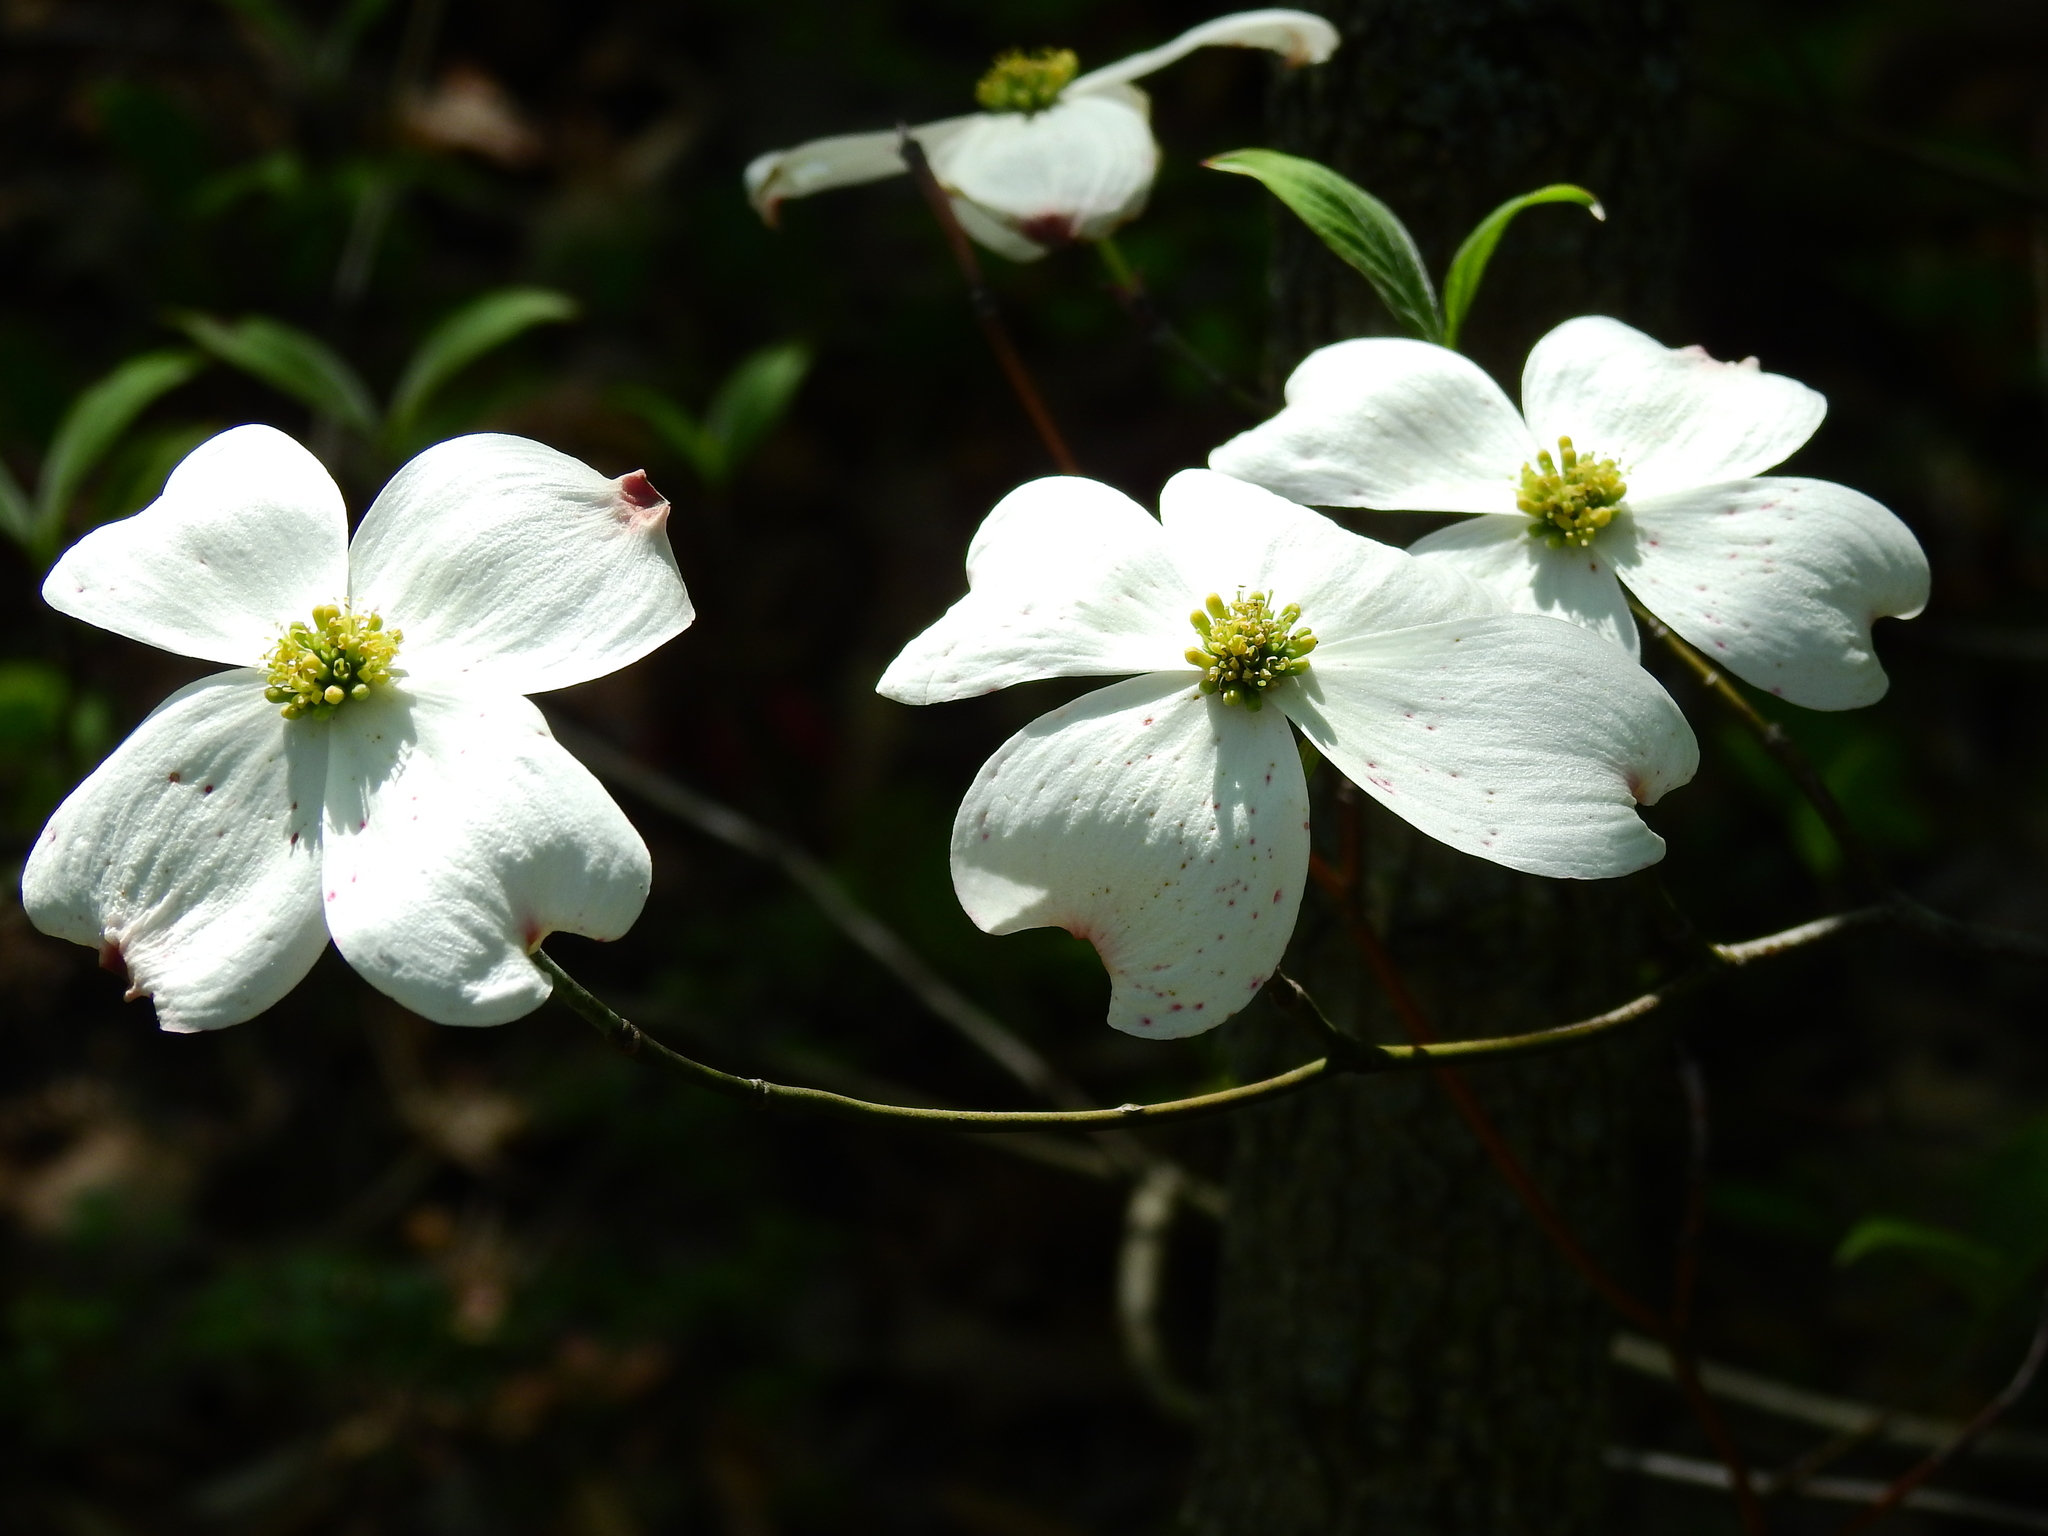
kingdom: Plantae
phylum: Tracheophyta
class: Magnoliopsida
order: Cornales
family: Cornaceae
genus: Cornus
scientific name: Cornus florida
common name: Flowering dogwood
